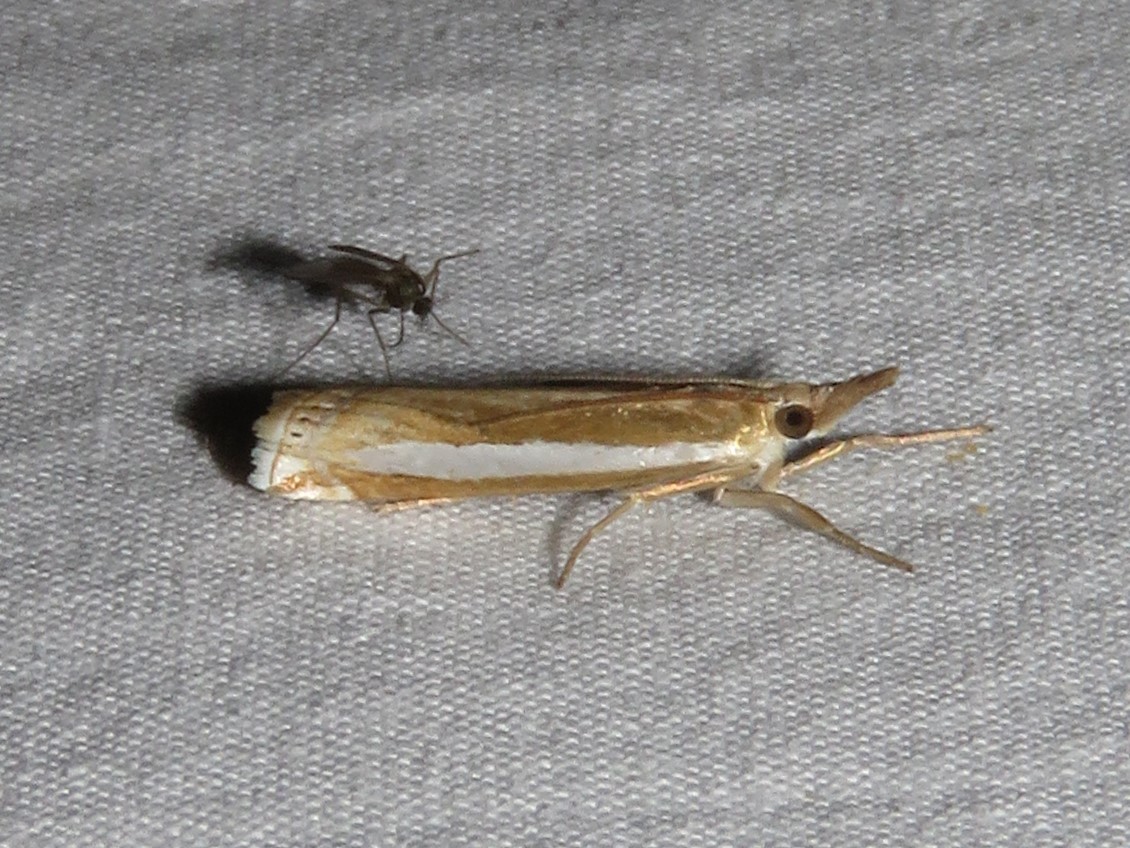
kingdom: Animalia
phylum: Arthropoda
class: Insecta
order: Lepidoptera
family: Crambidae
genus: Crambus
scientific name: Crambus praefectellus
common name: Common grass-veneer
